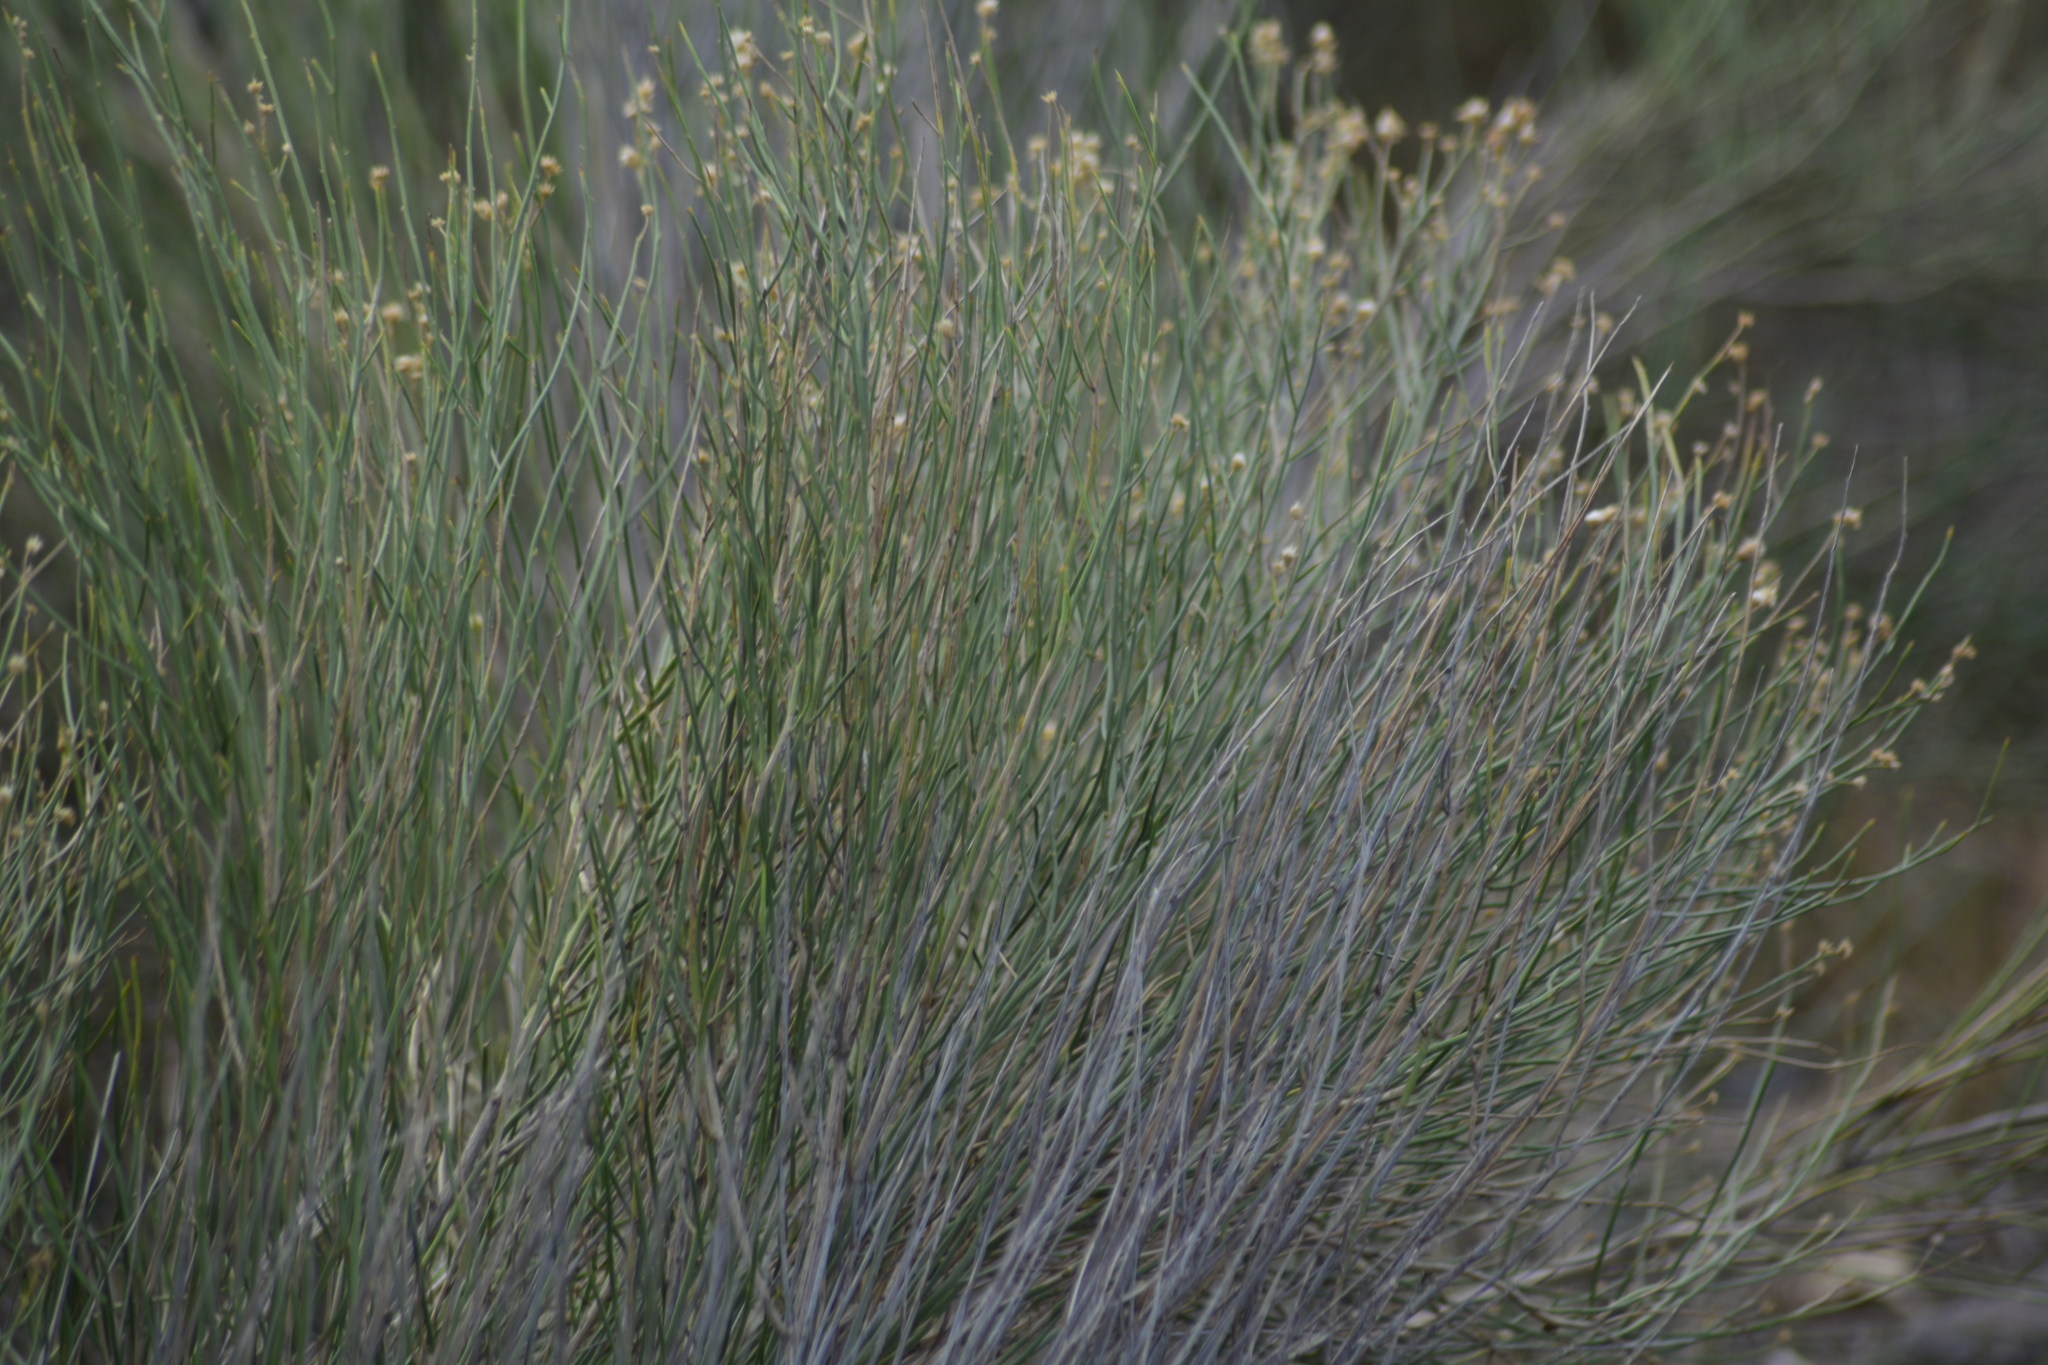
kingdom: Plantae
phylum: Tracheophyta
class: Magnoliopsida
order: Asterales
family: Asteraceae
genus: Pseudobaccharis
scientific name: Pseudobaccharis spartioides
